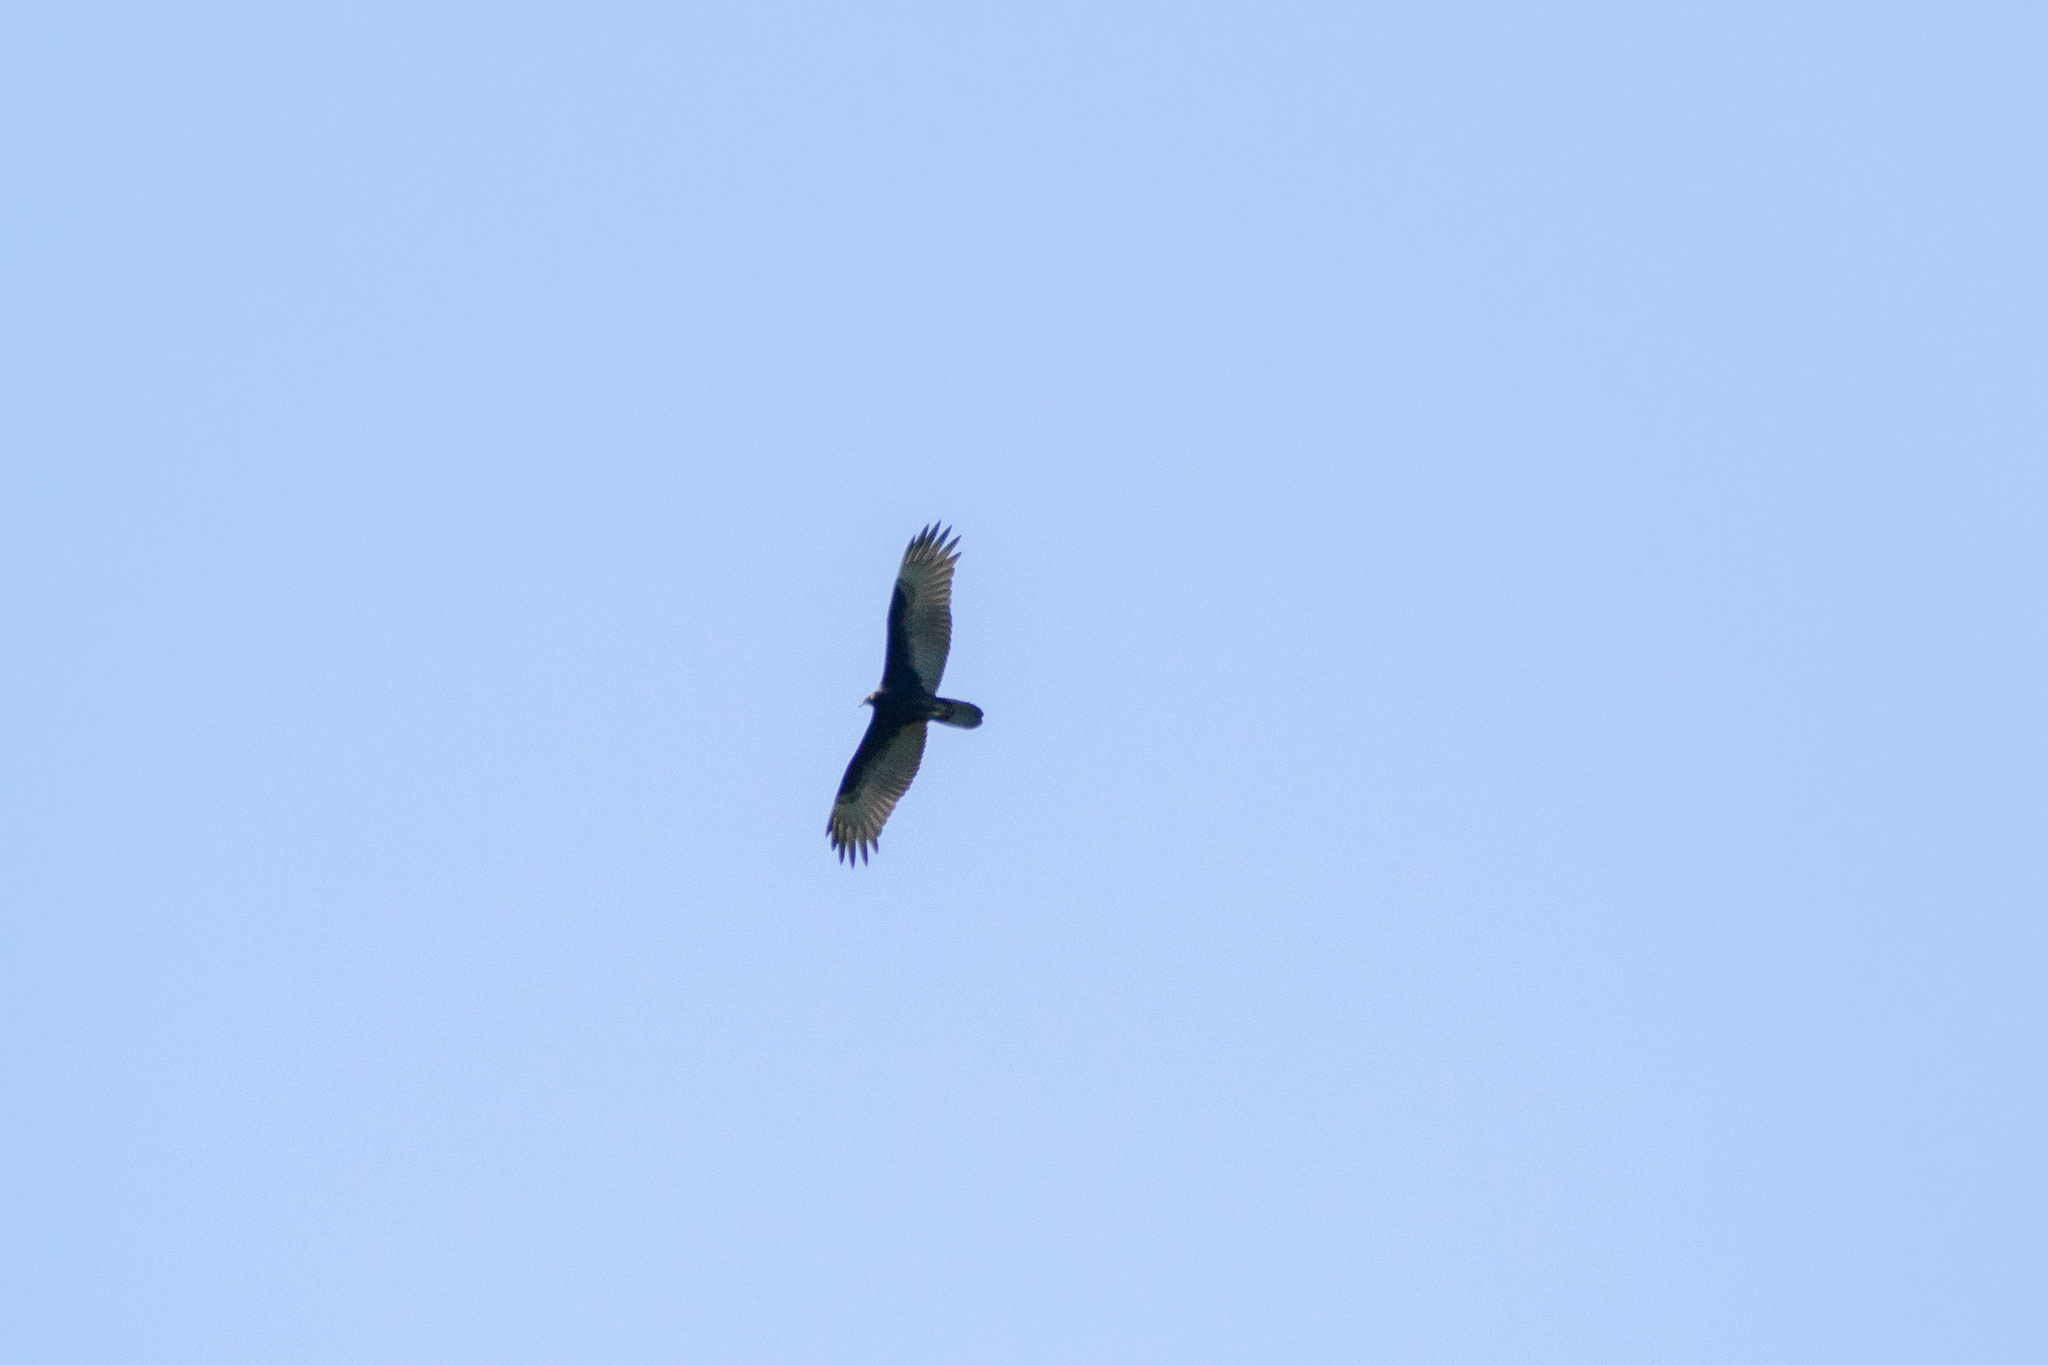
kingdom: Animalia
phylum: Chordata
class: Aves
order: Accipitriformes
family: Cathartidae
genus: Cathartes
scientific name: Cathartes aura
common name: Turkey vulture
